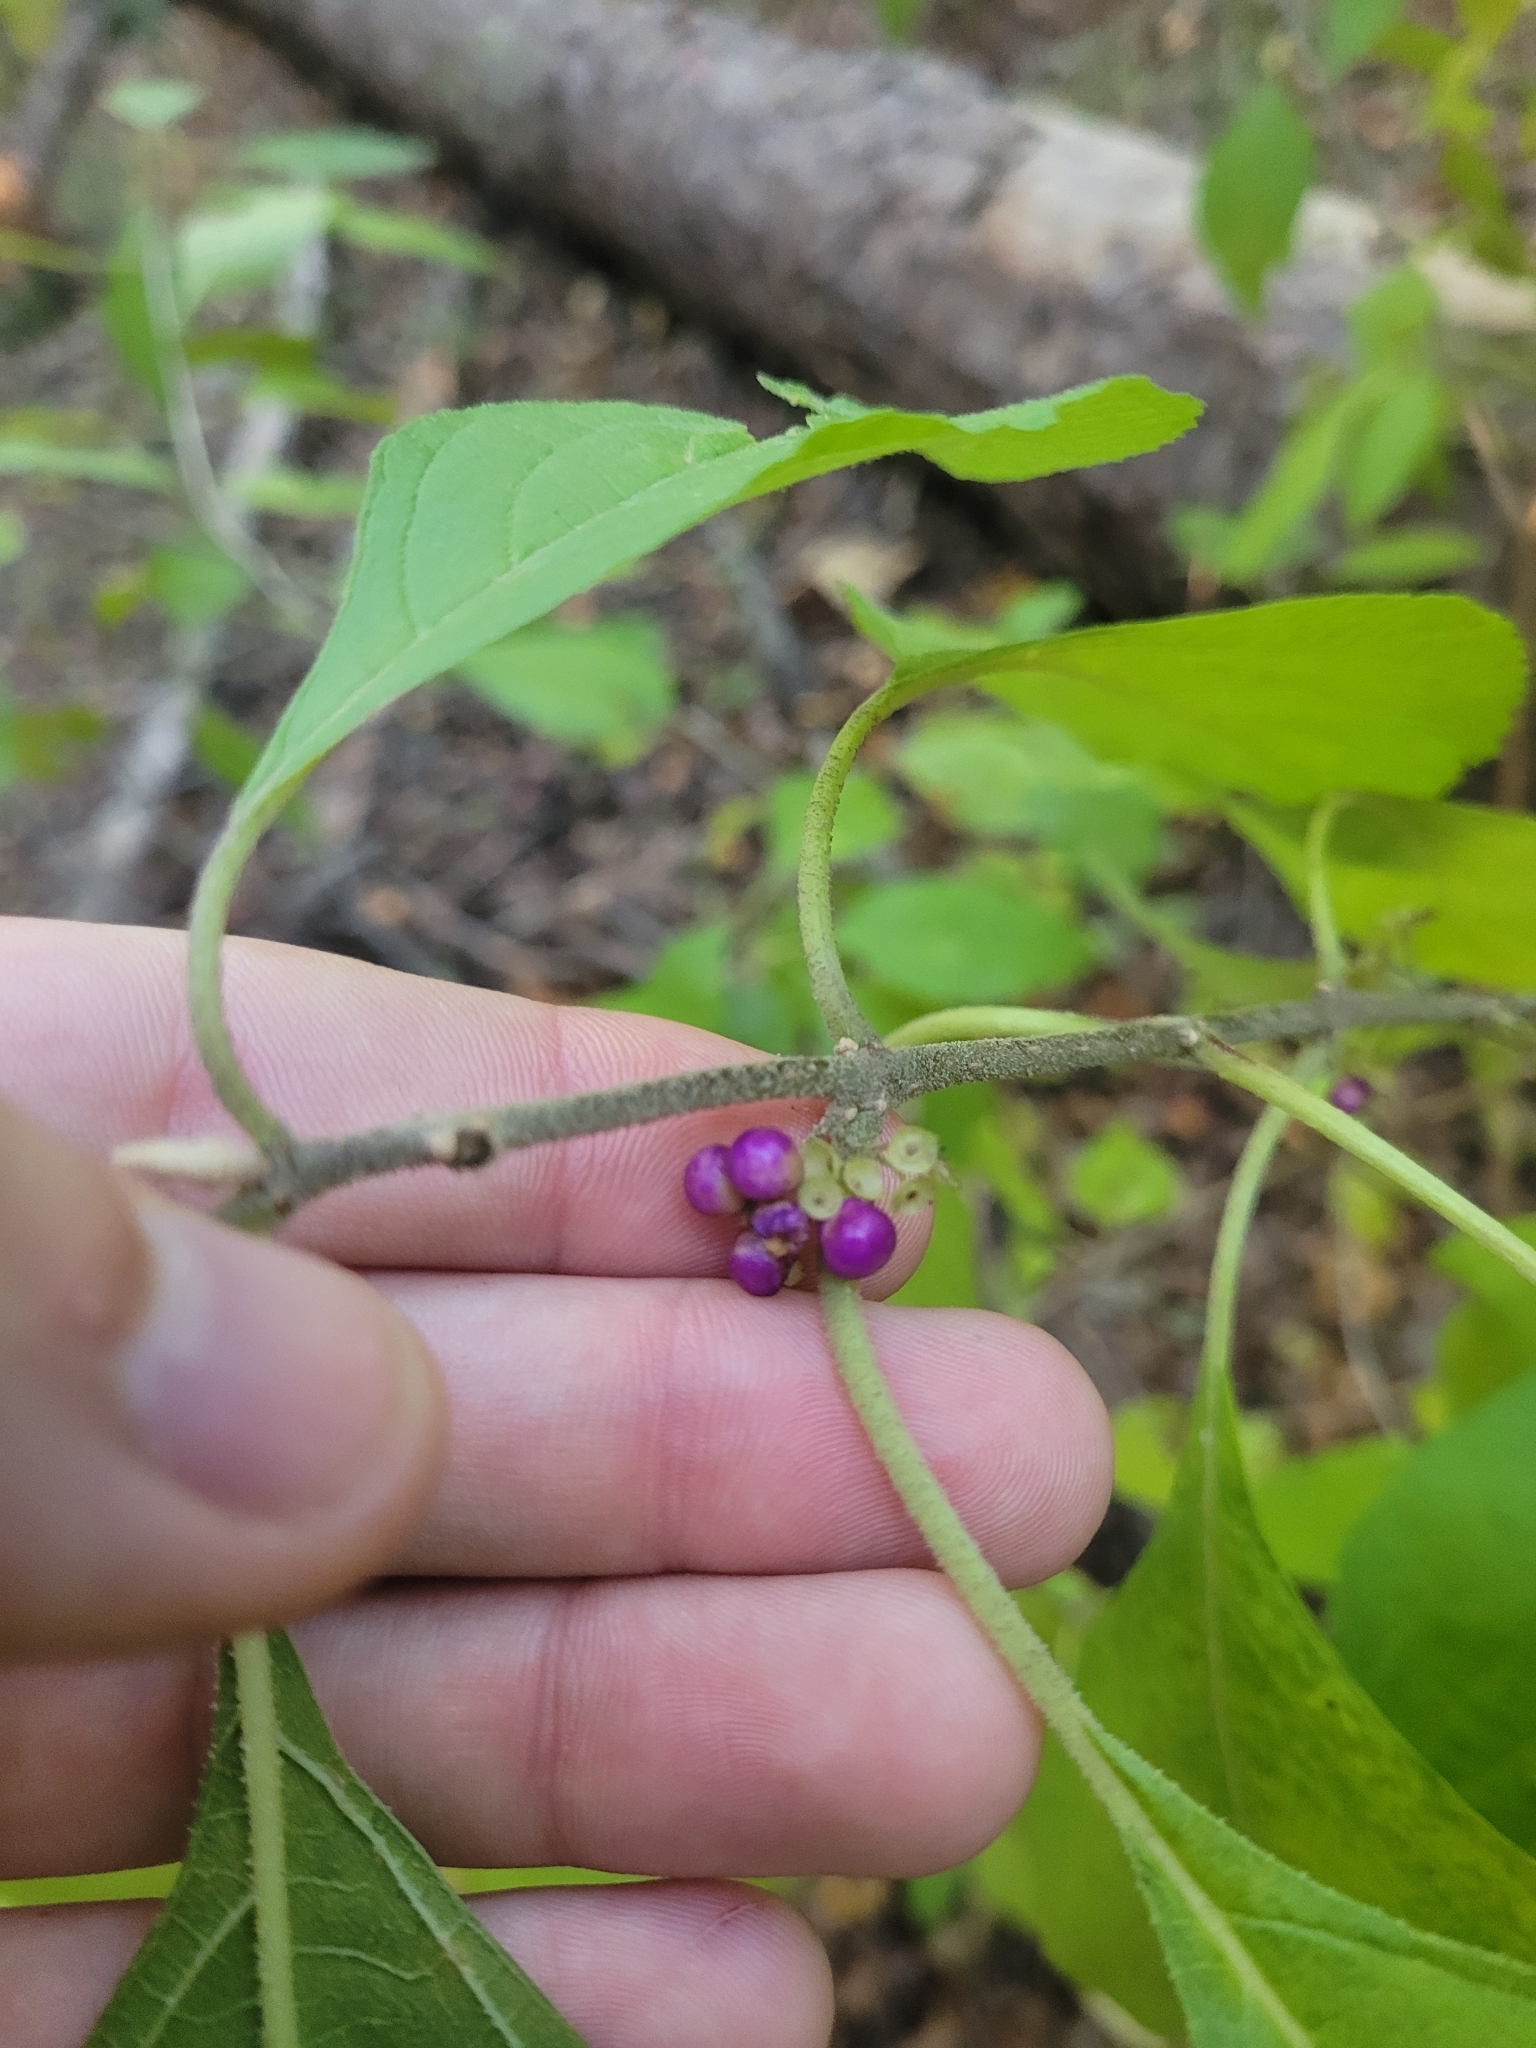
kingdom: Plantae
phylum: Tracheophyta
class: Magnoliopsida
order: Lamiales
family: Lamiaceae
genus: Callicarpa
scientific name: Callicarpa americana
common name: American beautyberry
